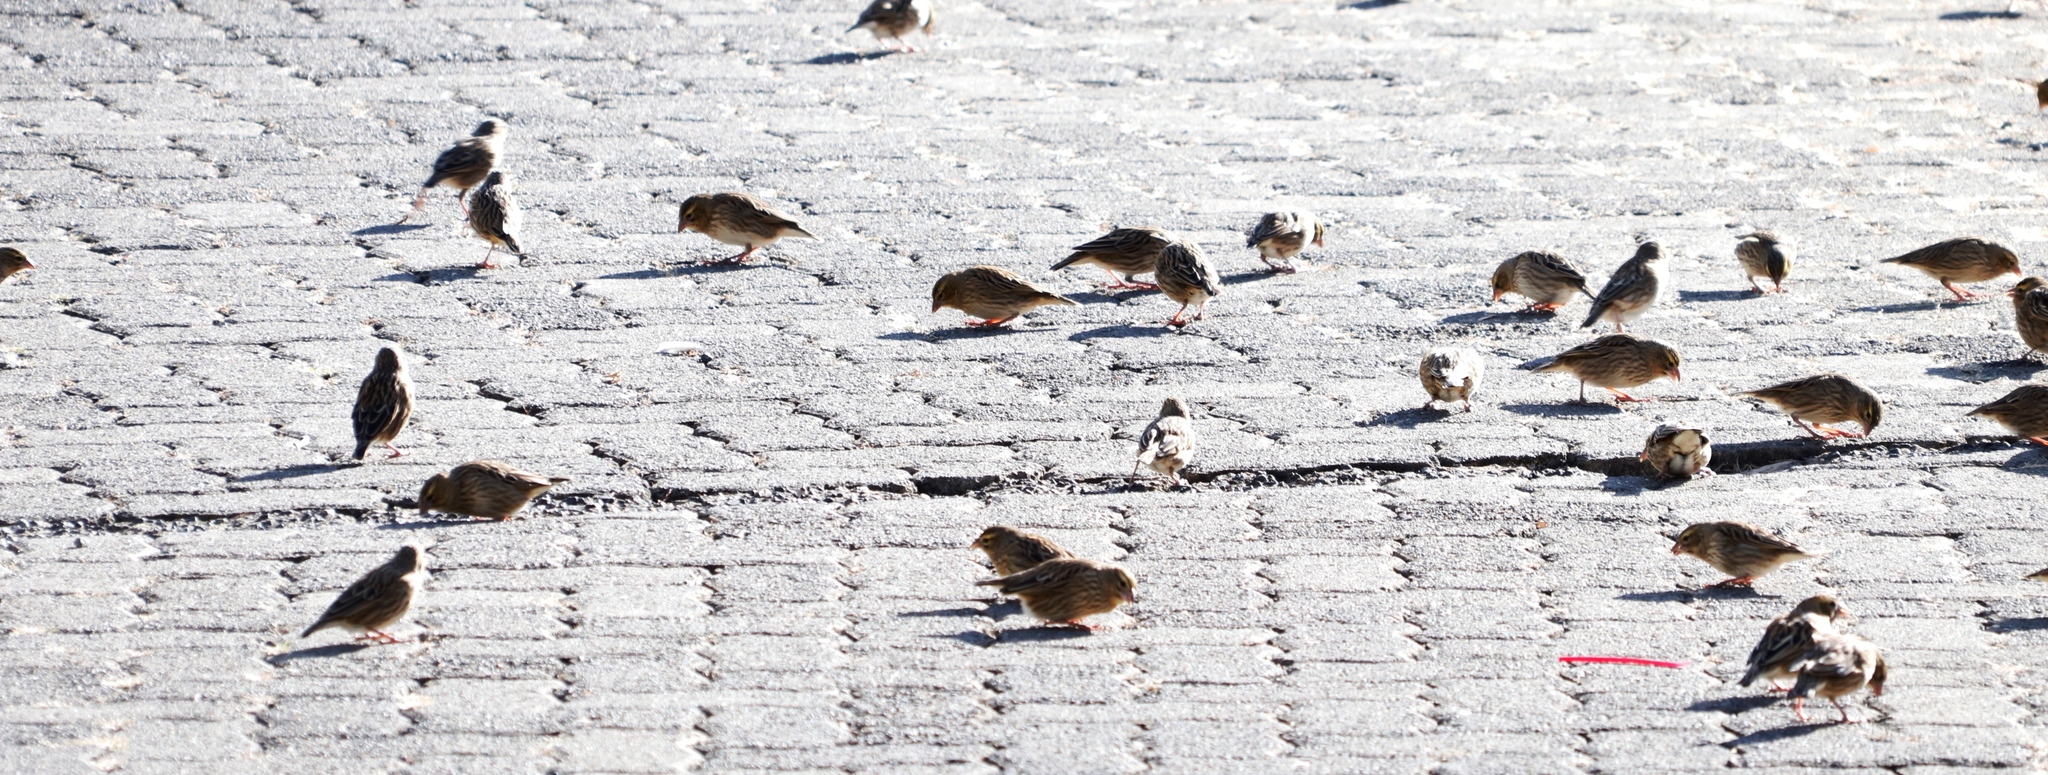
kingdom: Animalia
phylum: Chordata
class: Aves
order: Passeriformes
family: Ploceidae
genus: Euplectes
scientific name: Euplectes orix
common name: Southern red bishop
